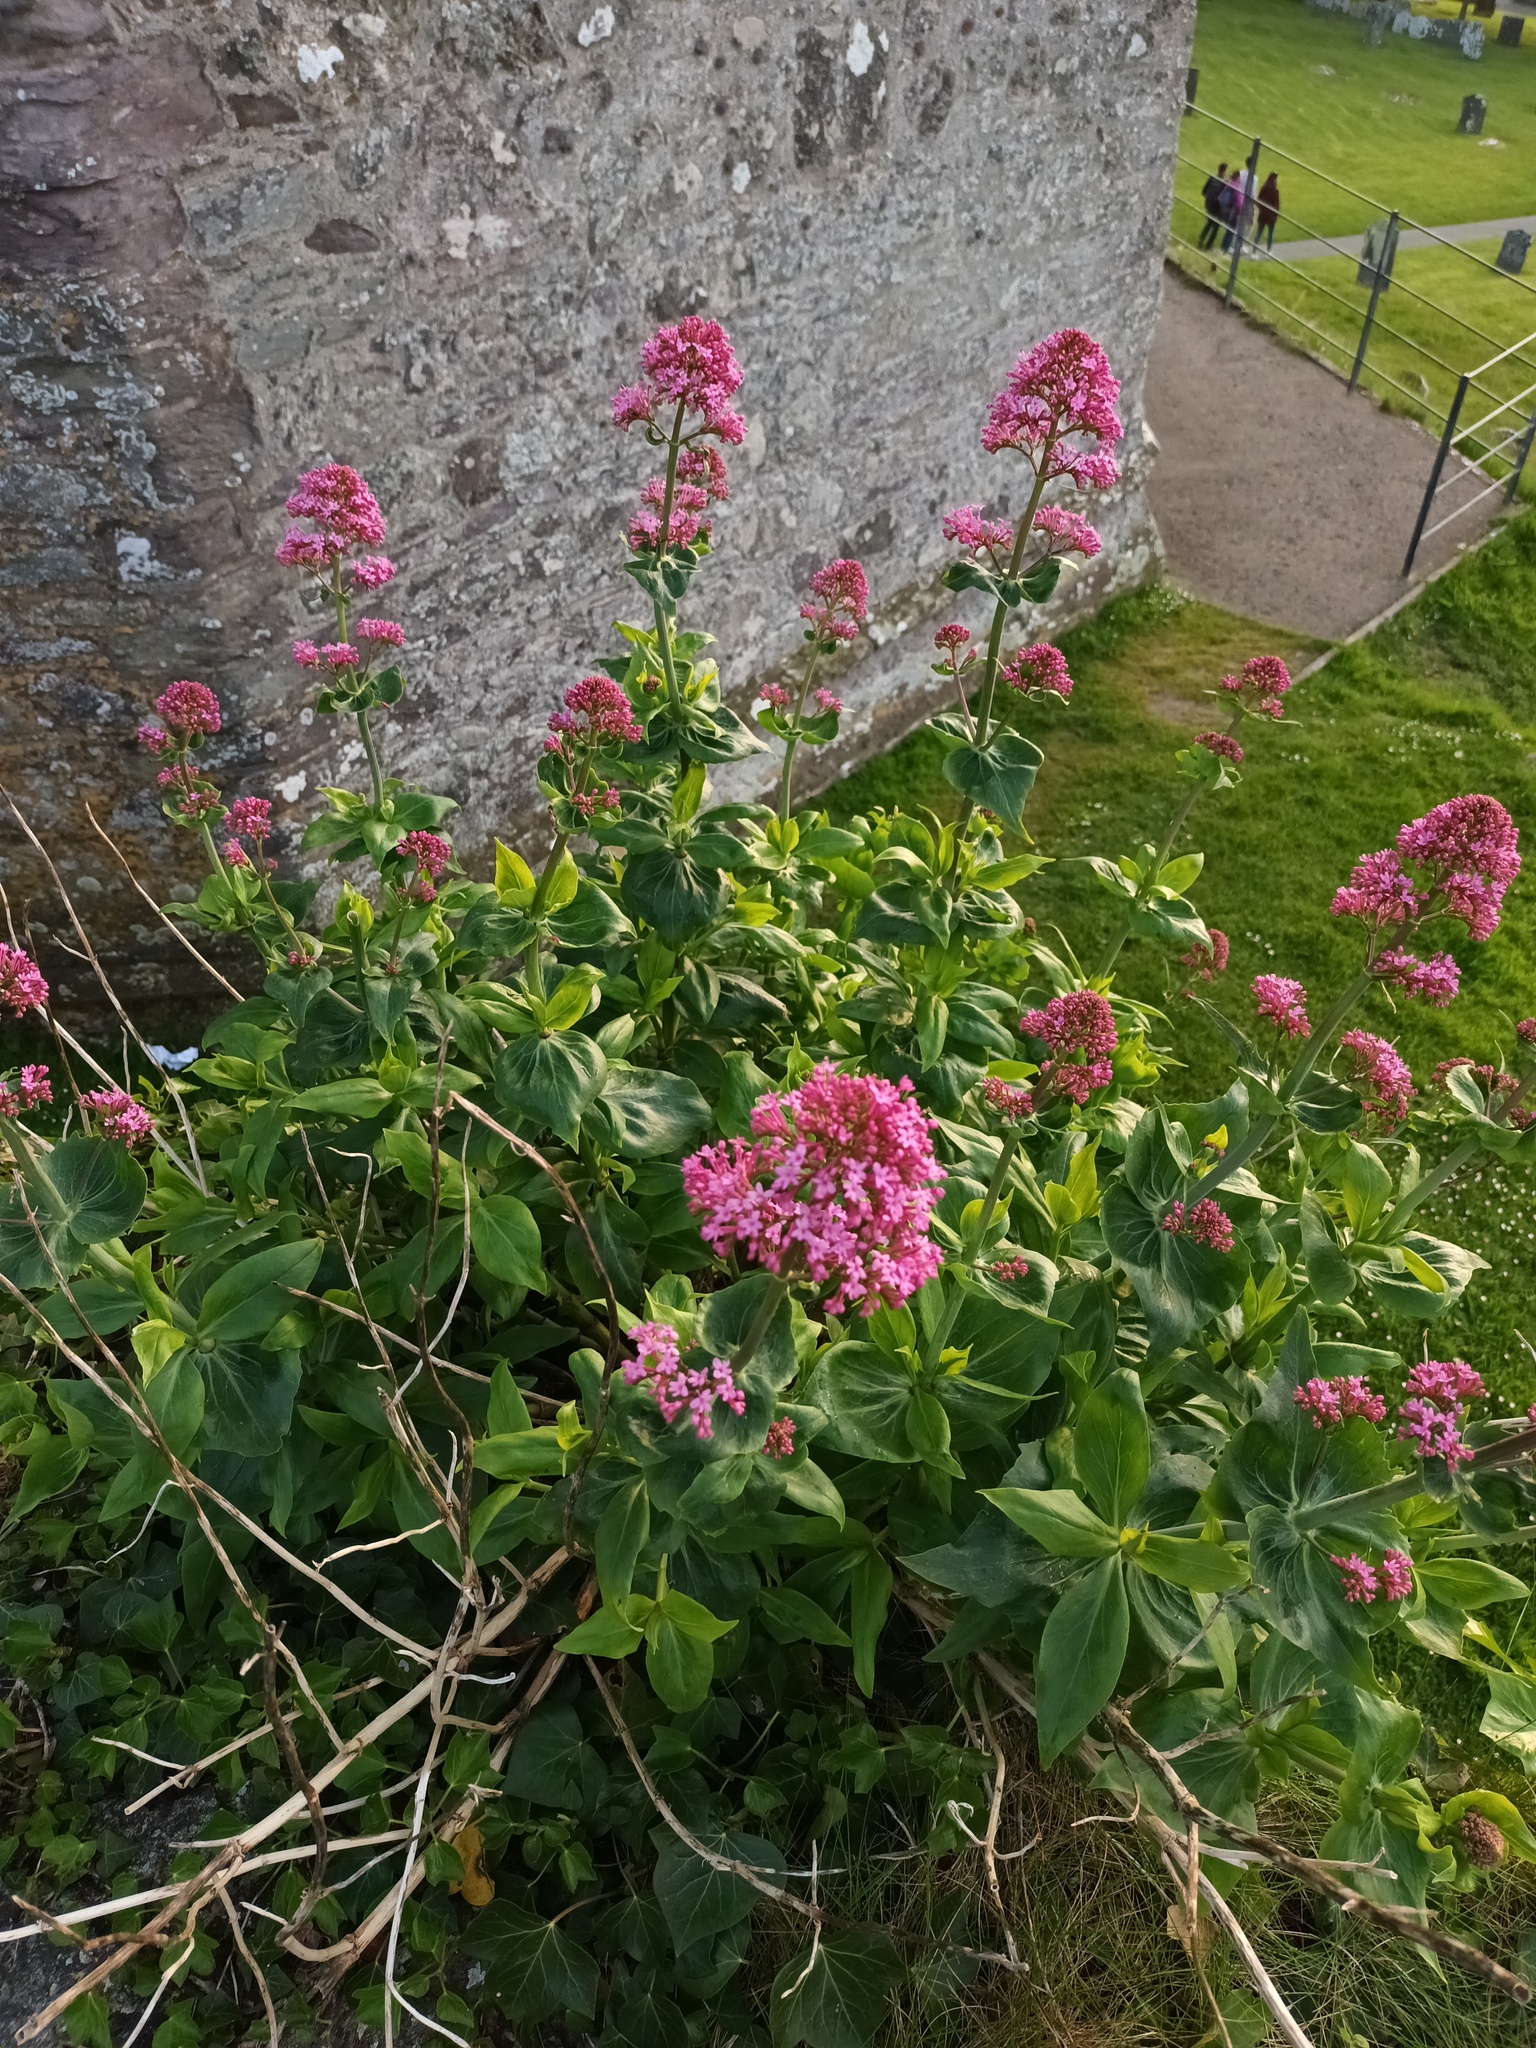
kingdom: Plantae
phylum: Tracheophyta
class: Magnoliopsida
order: Dipsacales
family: Caprifoliaceae
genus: Centranthus
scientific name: Centranthus ruber
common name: Red valerian
